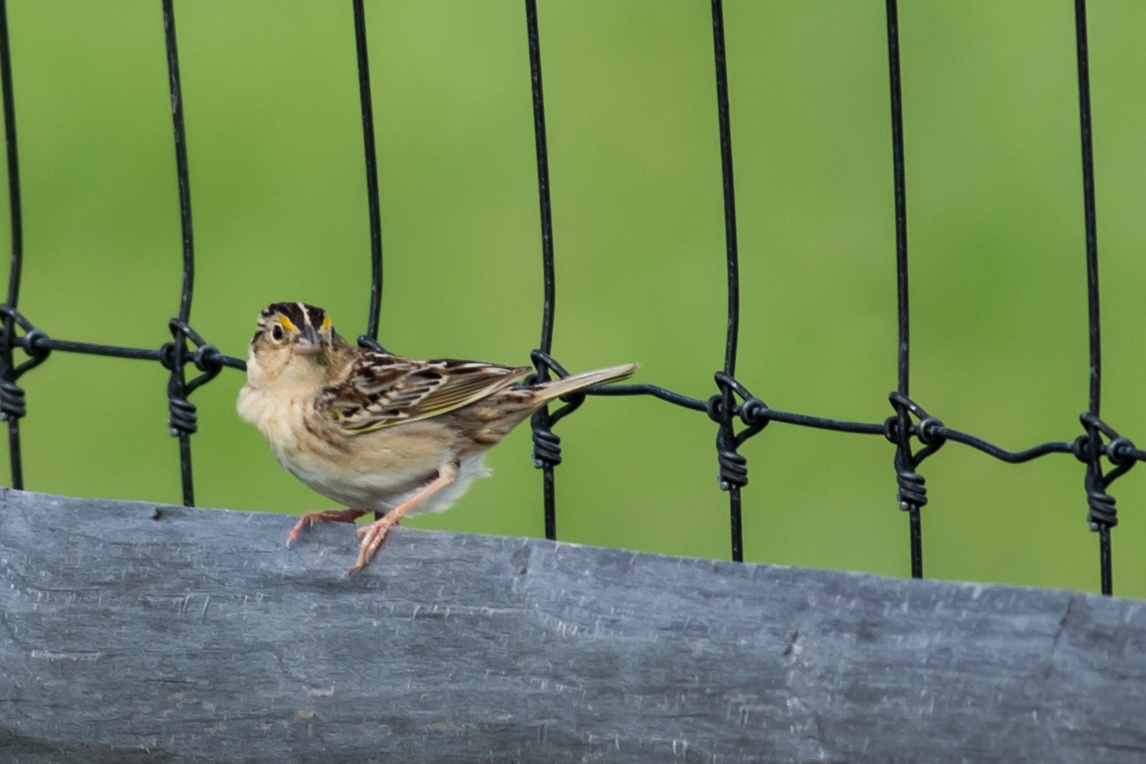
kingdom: Animalia
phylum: Chordata
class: Aves
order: Passeriformes
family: Passerellidae
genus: Ammodramus
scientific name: Ammodramus savannarum
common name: Grasshopper sparrow
